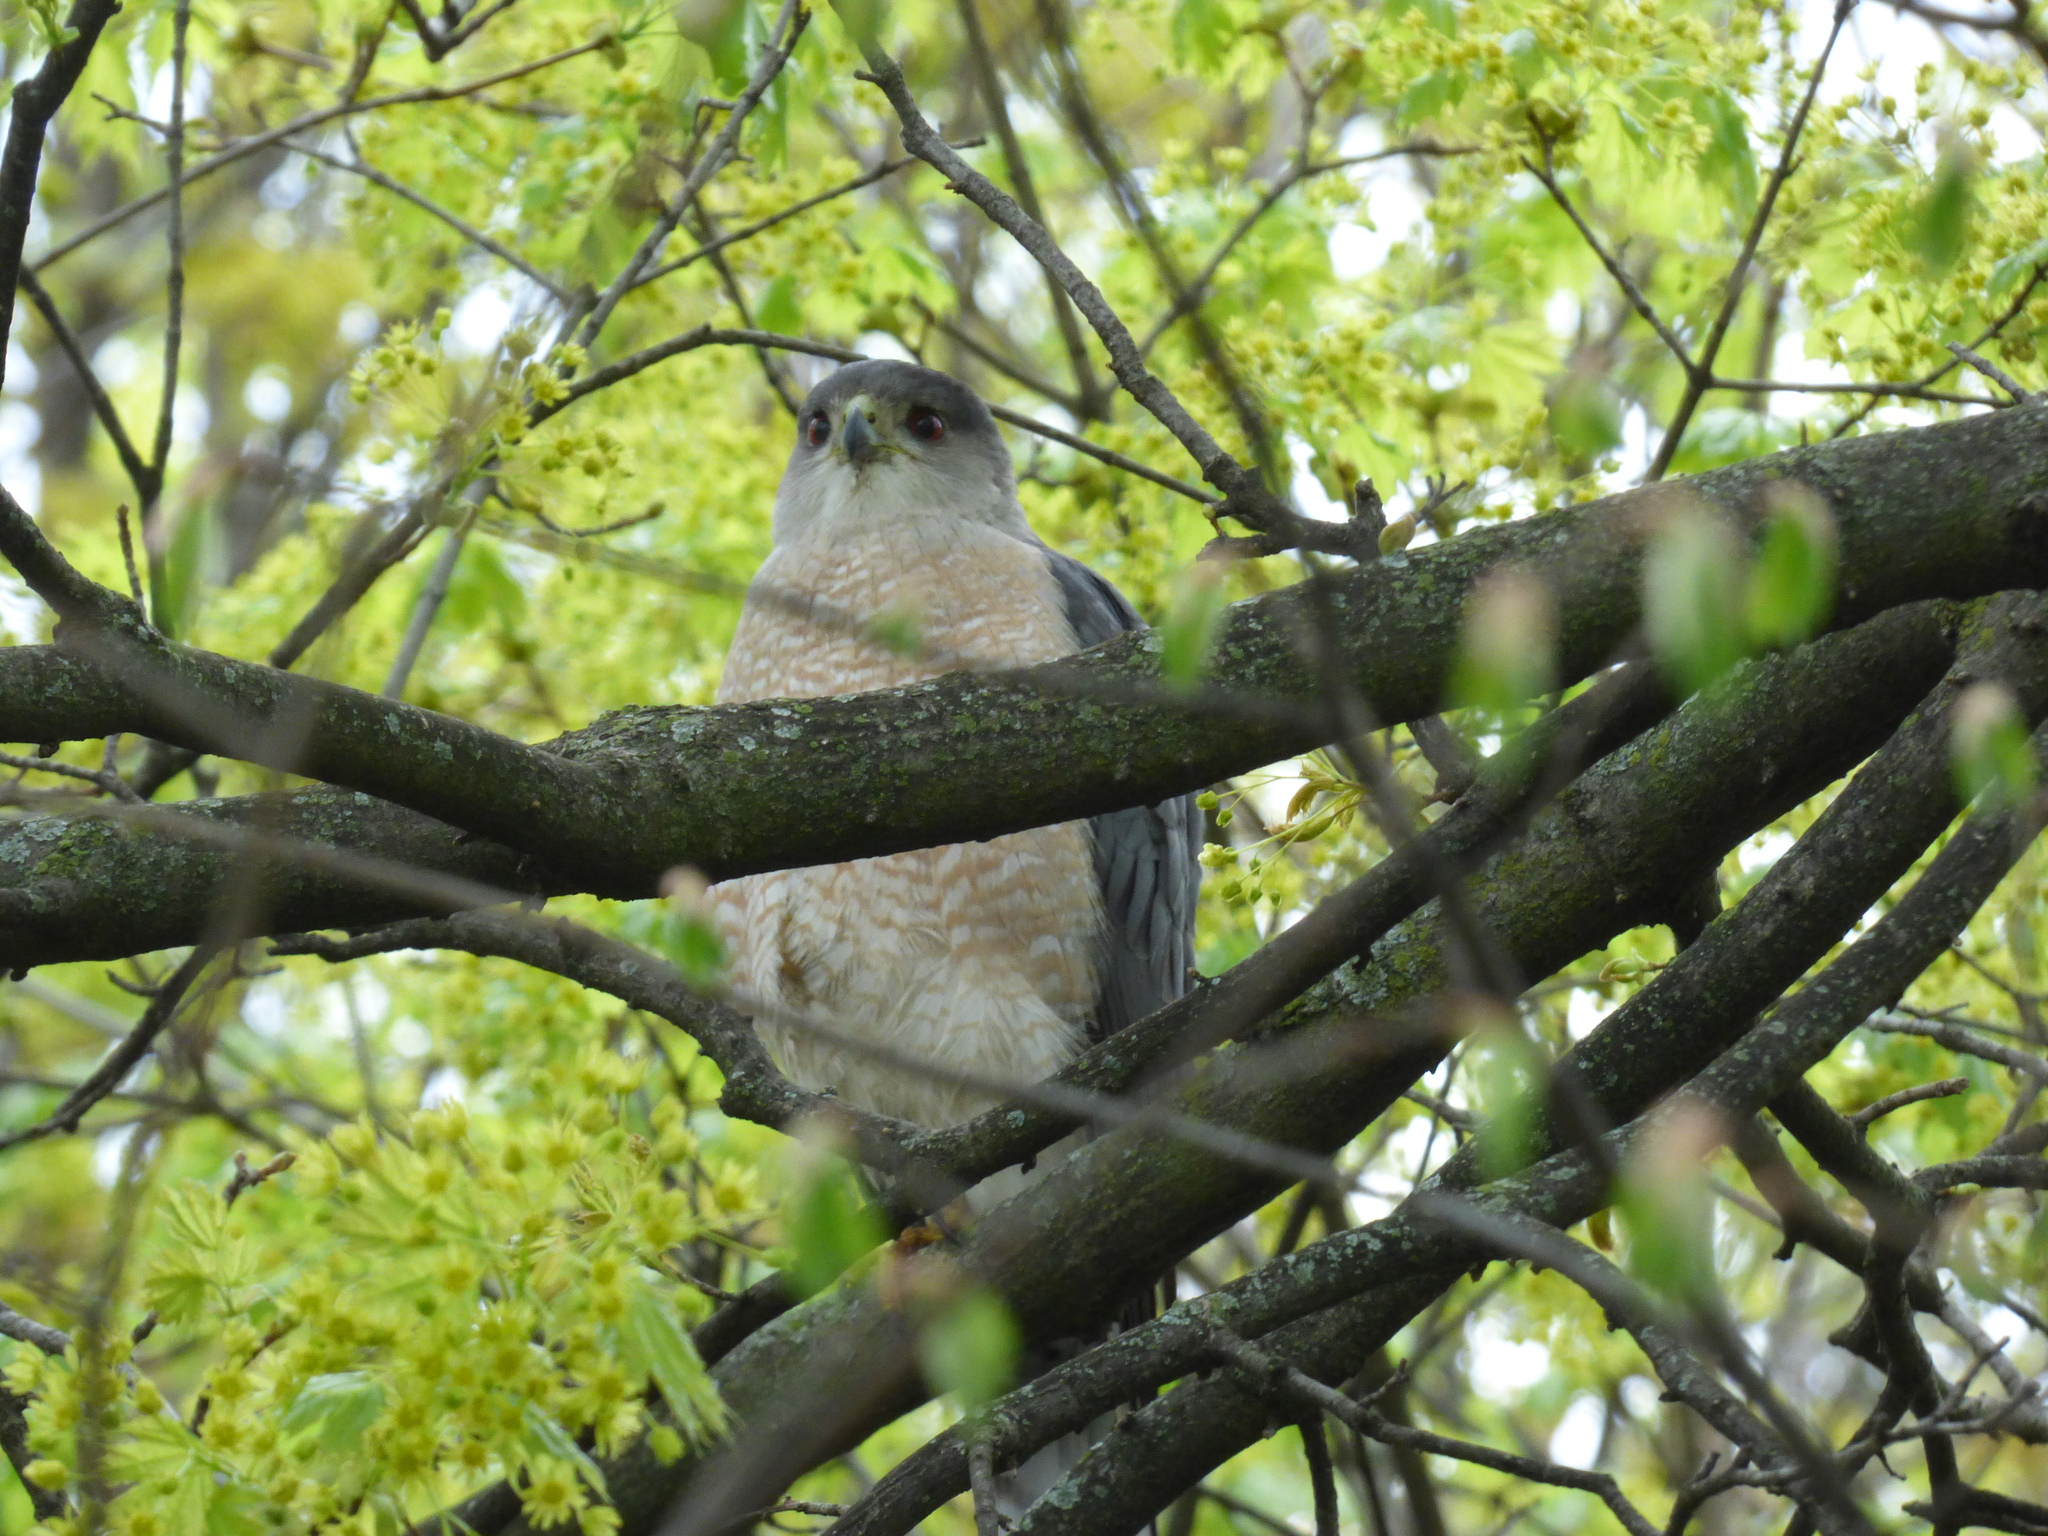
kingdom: Animalia
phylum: Chordata
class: Aves
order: Accipitriformes
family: Accipitridae
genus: Accipiter
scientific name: Accipiter cooperii
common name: Cooper's hawk
